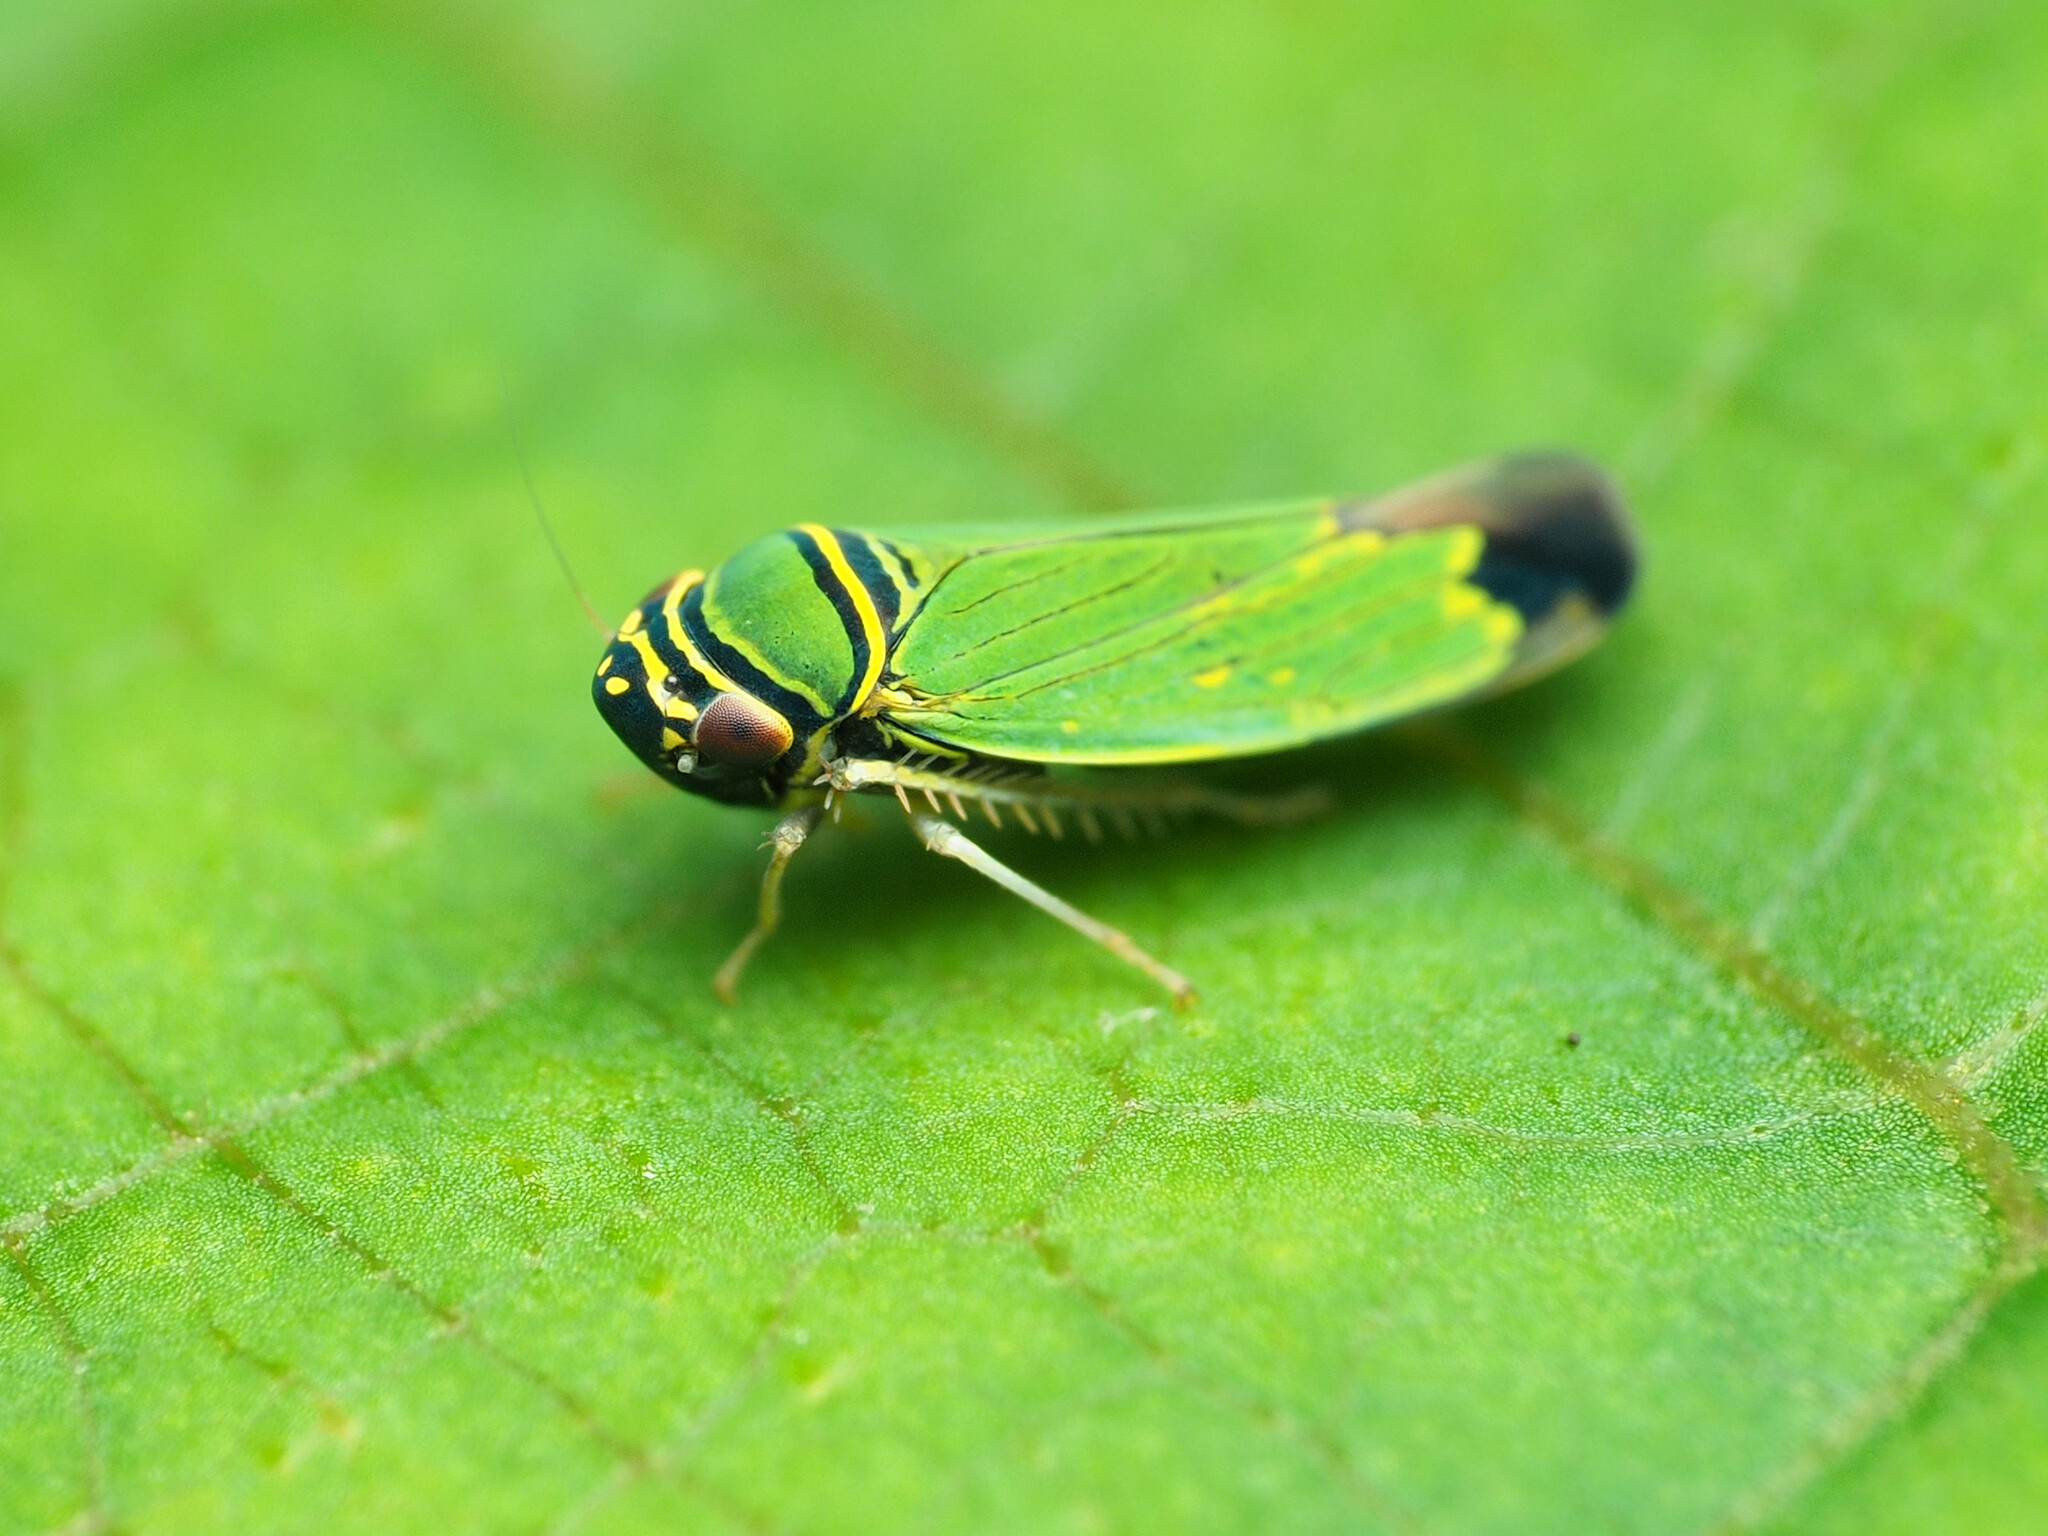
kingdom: Animalia
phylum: Arthropoda
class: Insecta
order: Hemiptera
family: Cicadellidae
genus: Tylozygus
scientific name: Tylozygus geometricus
